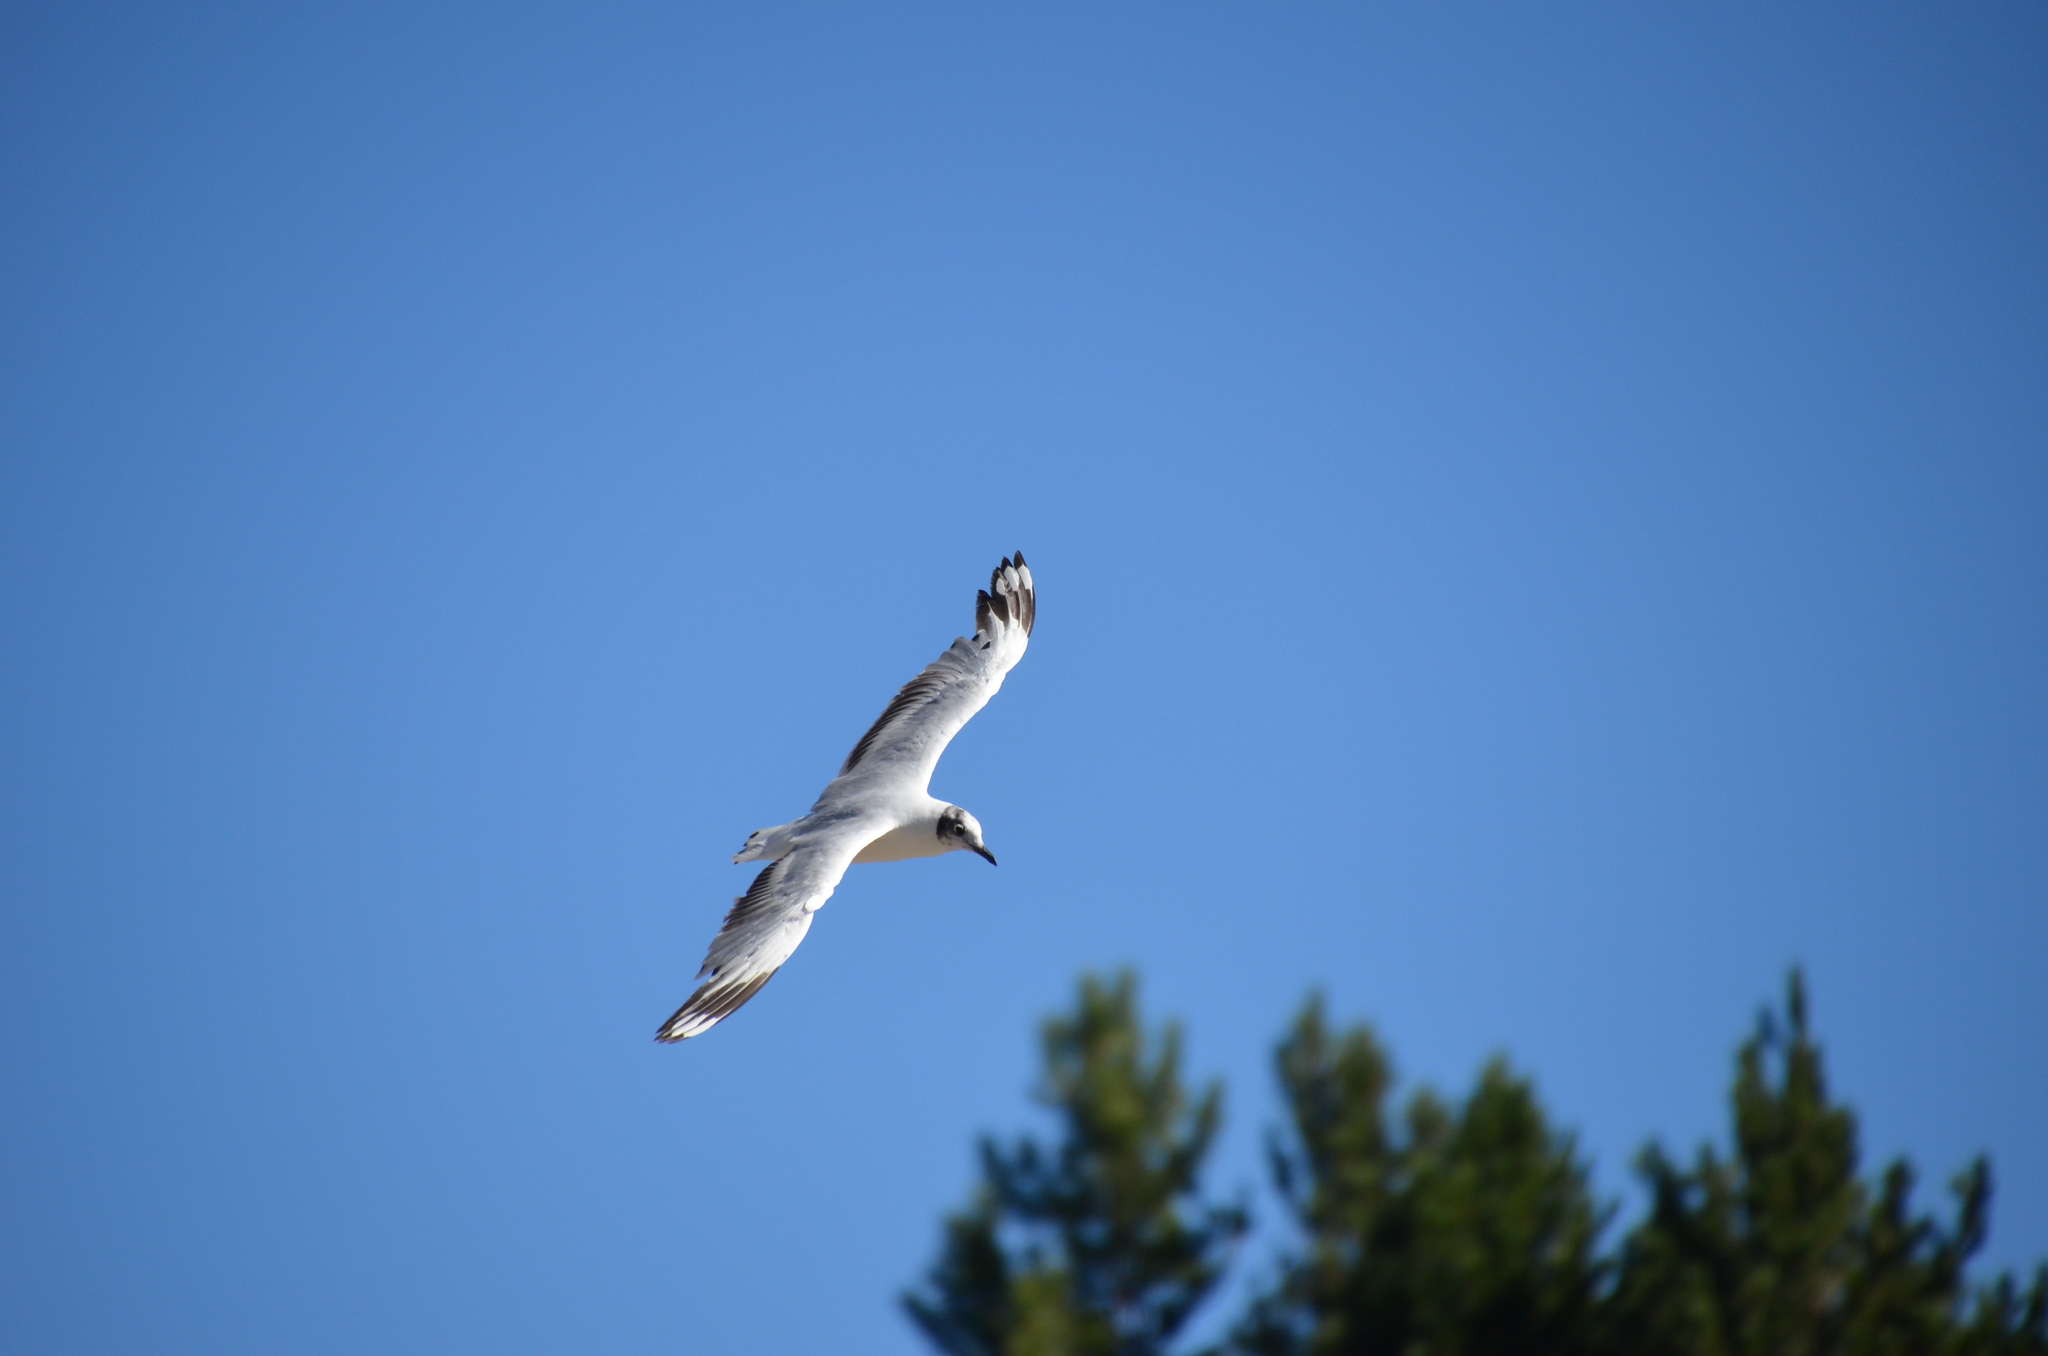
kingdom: Animalia
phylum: Chordata
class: Aves
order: Charadriiformes
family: Laridae
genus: Chroicocephalus
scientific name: Chroicocephalus serranus
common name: Andean gull
